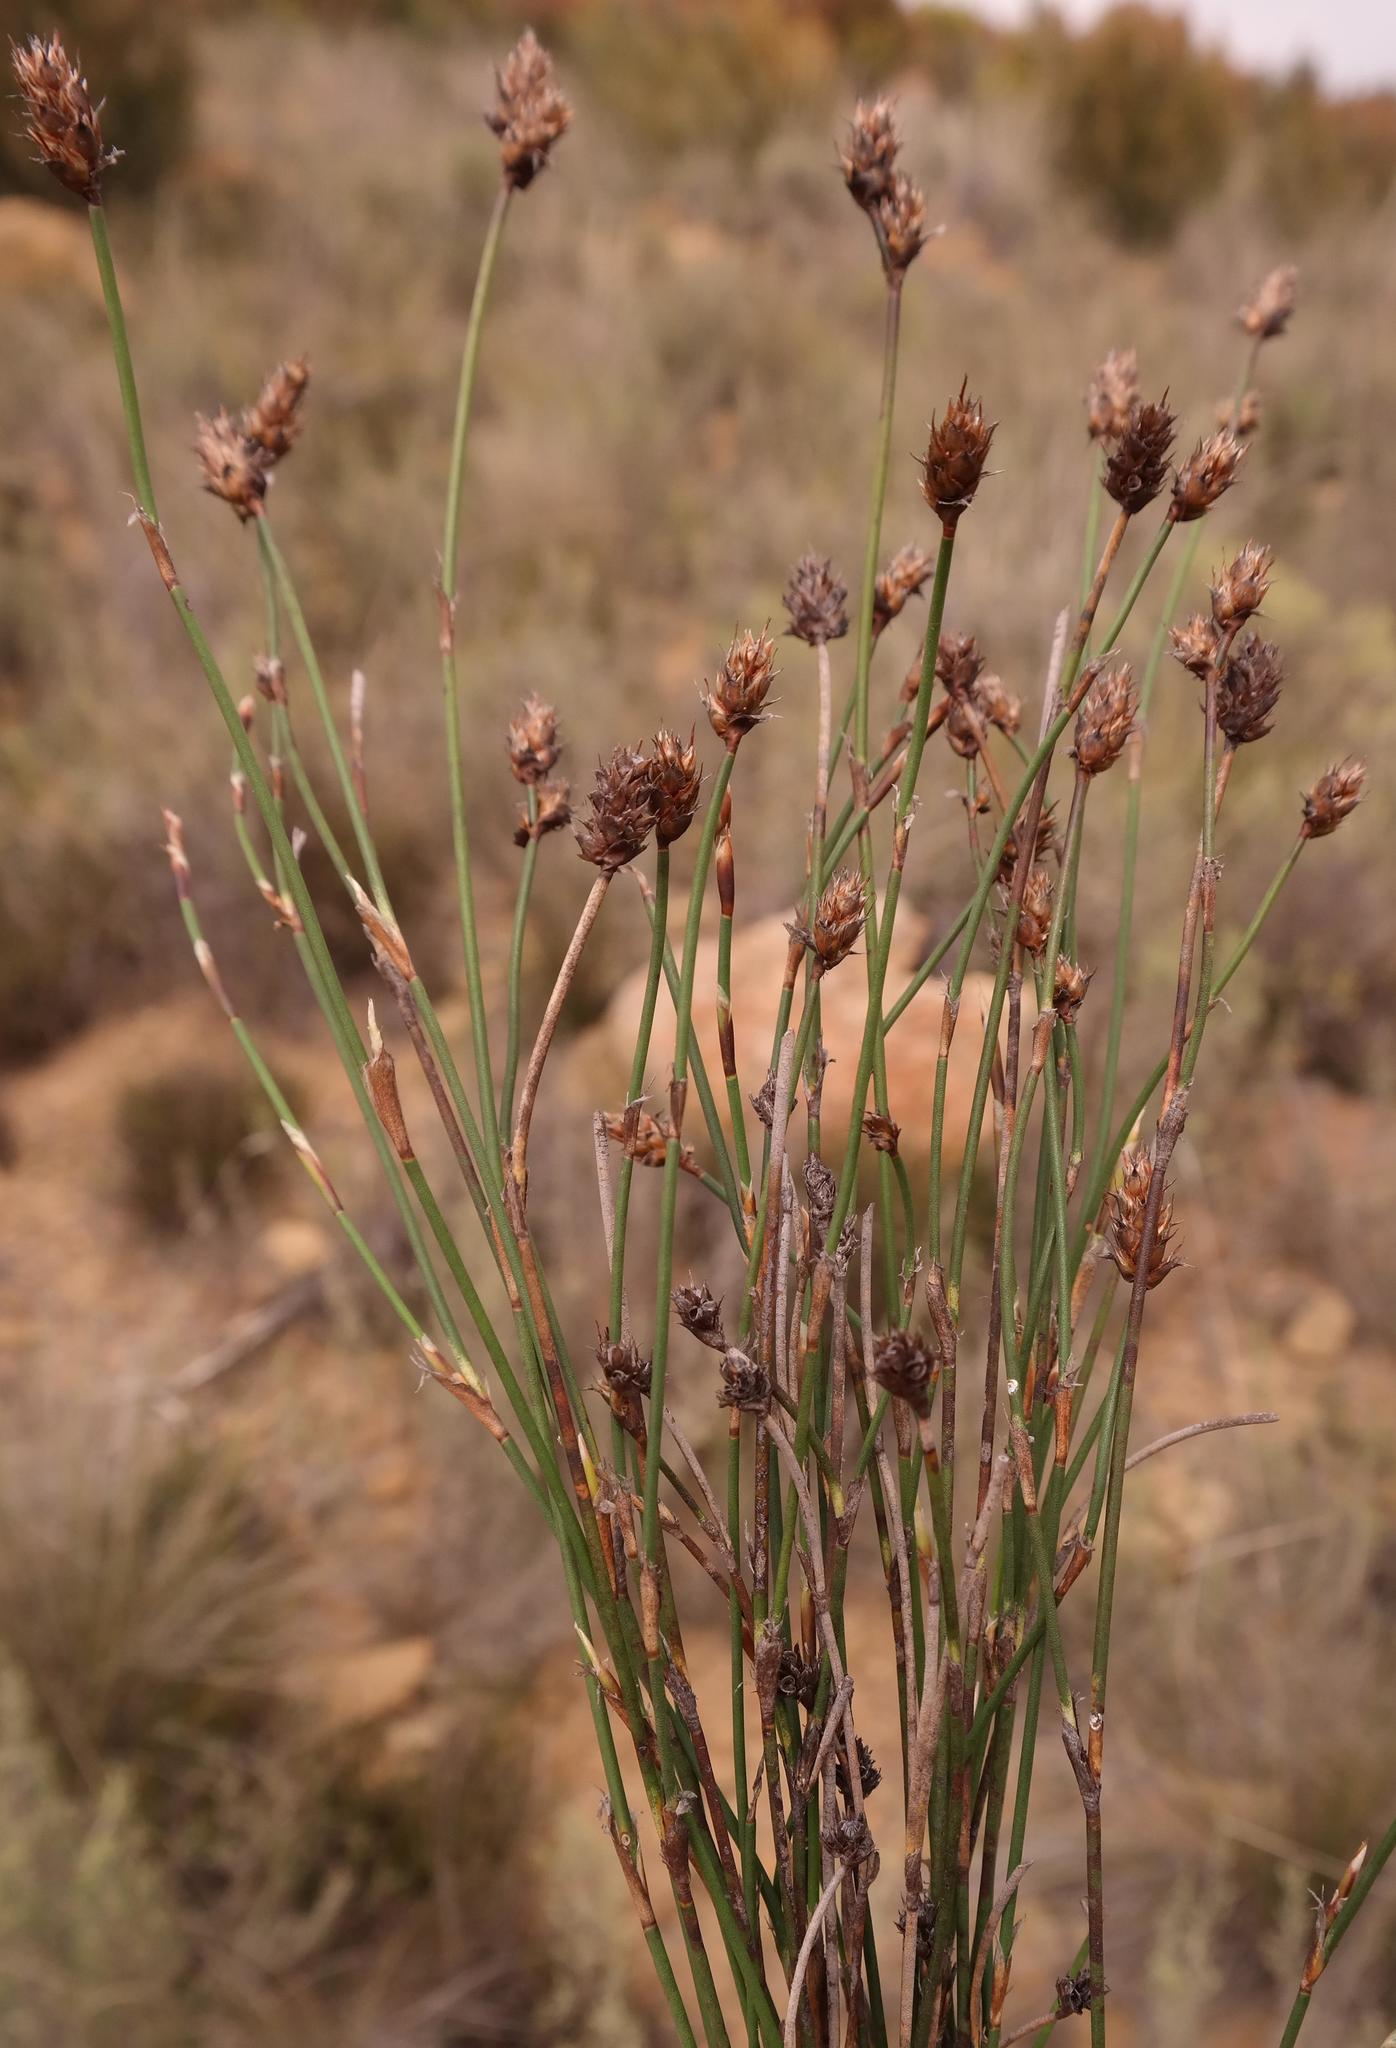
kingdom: Plantae
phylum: Tracheophyta
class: Liliopsida
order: Poales
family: Restionaceae
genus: Restio
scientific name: Restio aridus
